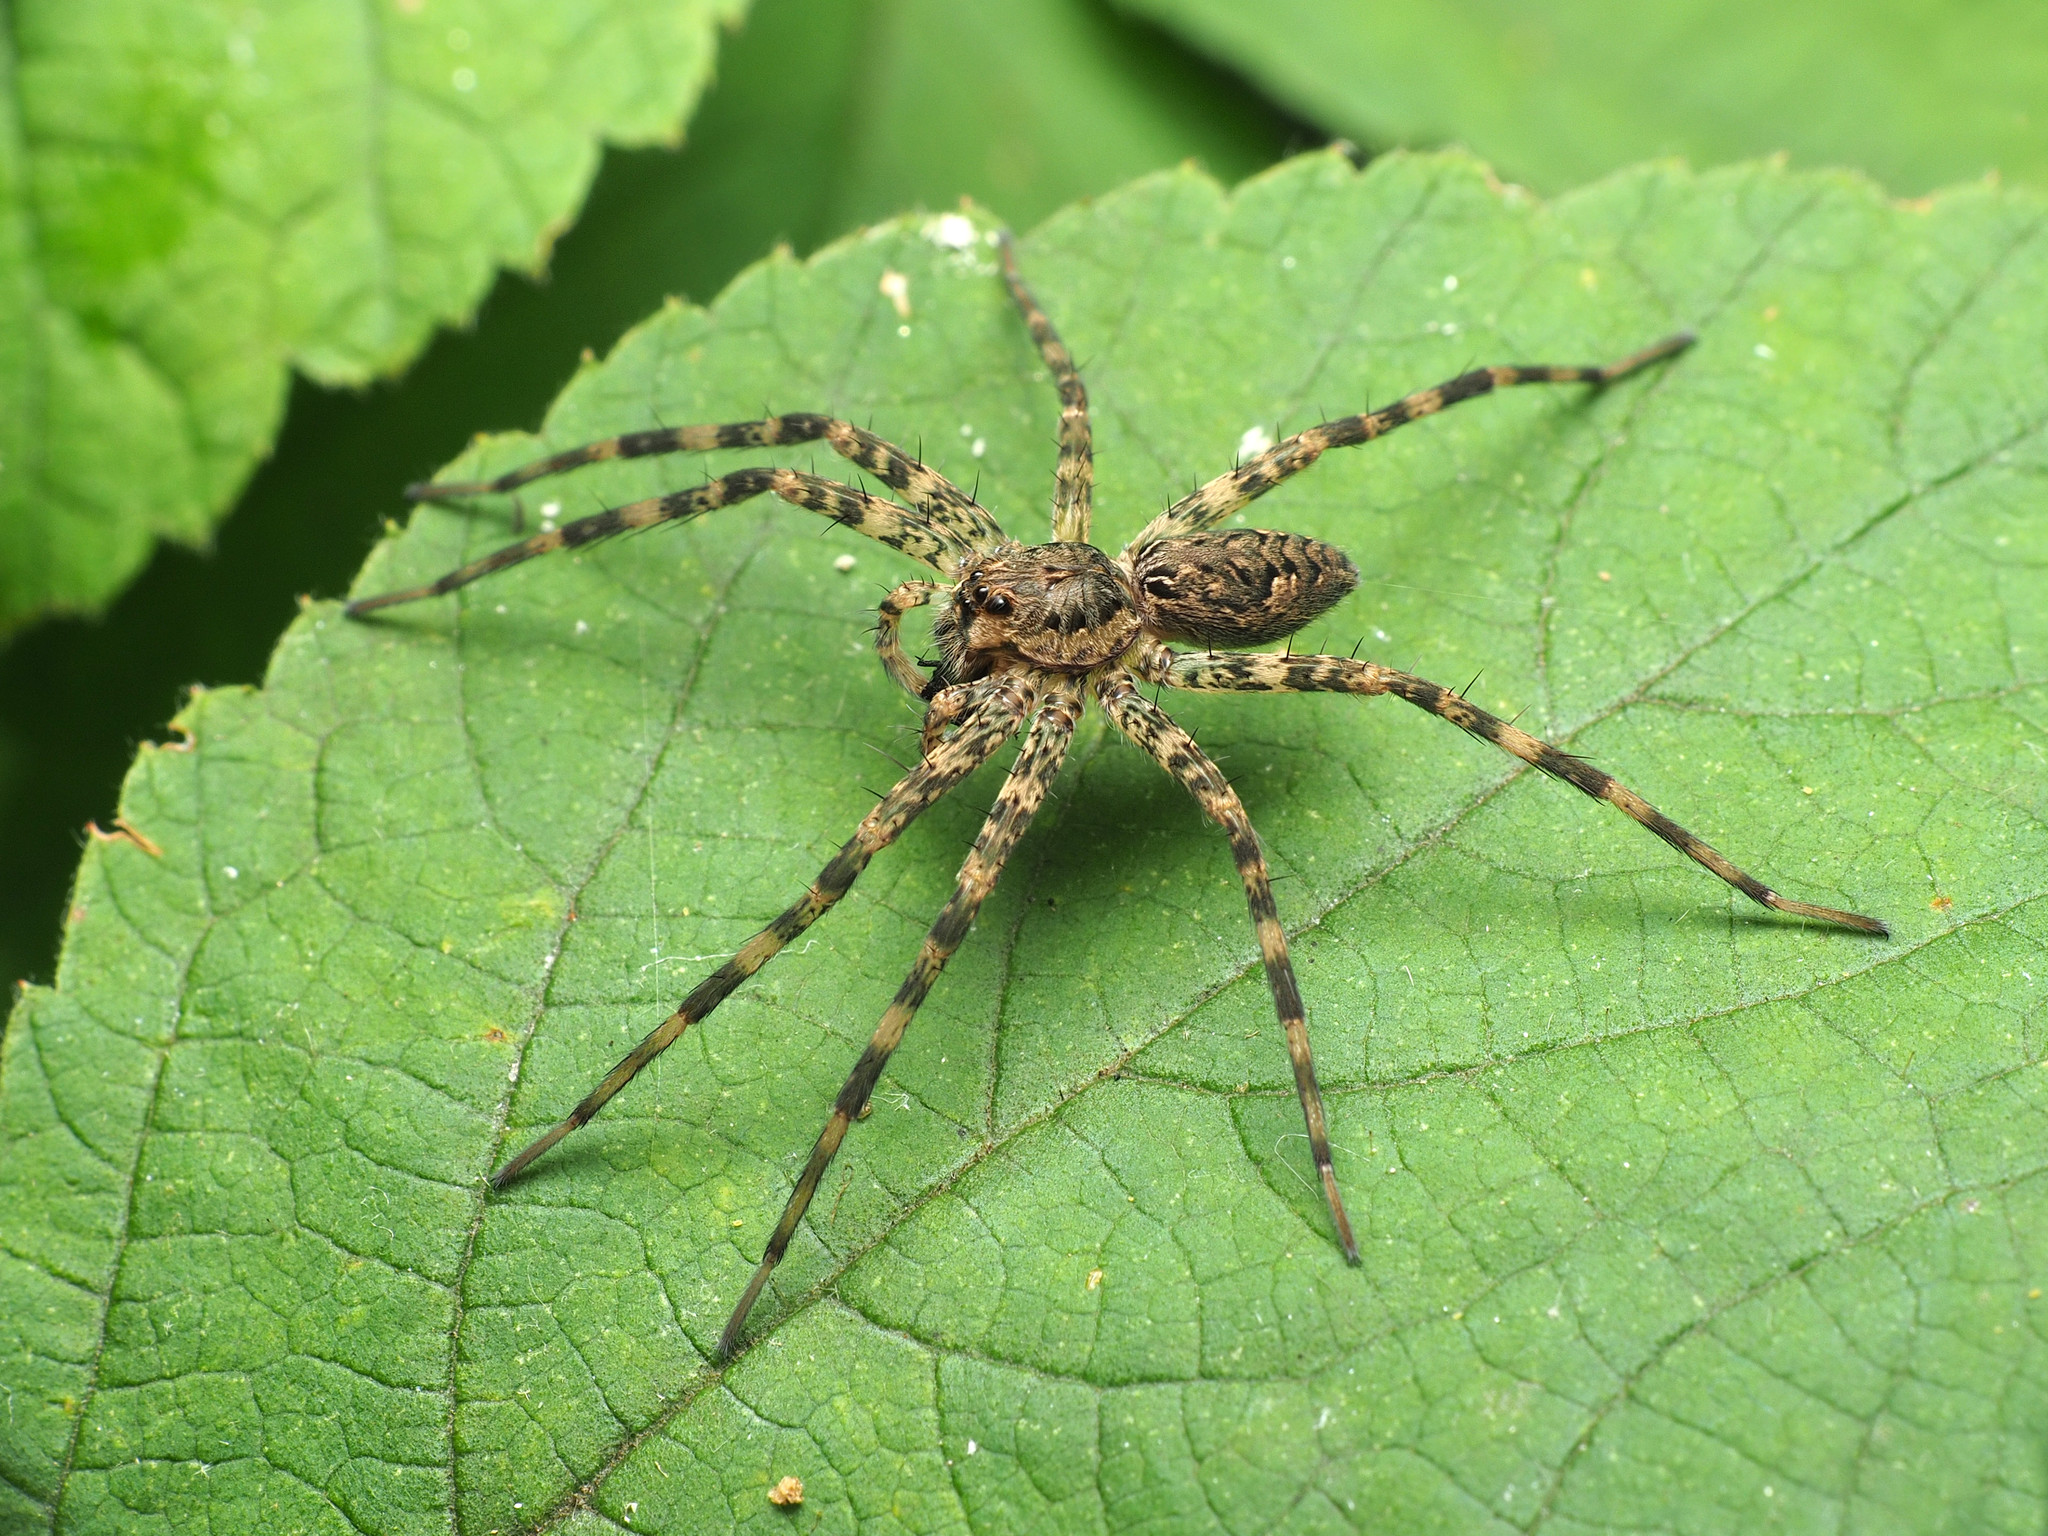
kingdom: Animalia
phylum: Arthropoda
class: Arachnida
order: Araneae
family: Pisauridae
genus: Dolomedes
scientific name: Dolomedes tenebrosus
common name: Dark fishing spider
